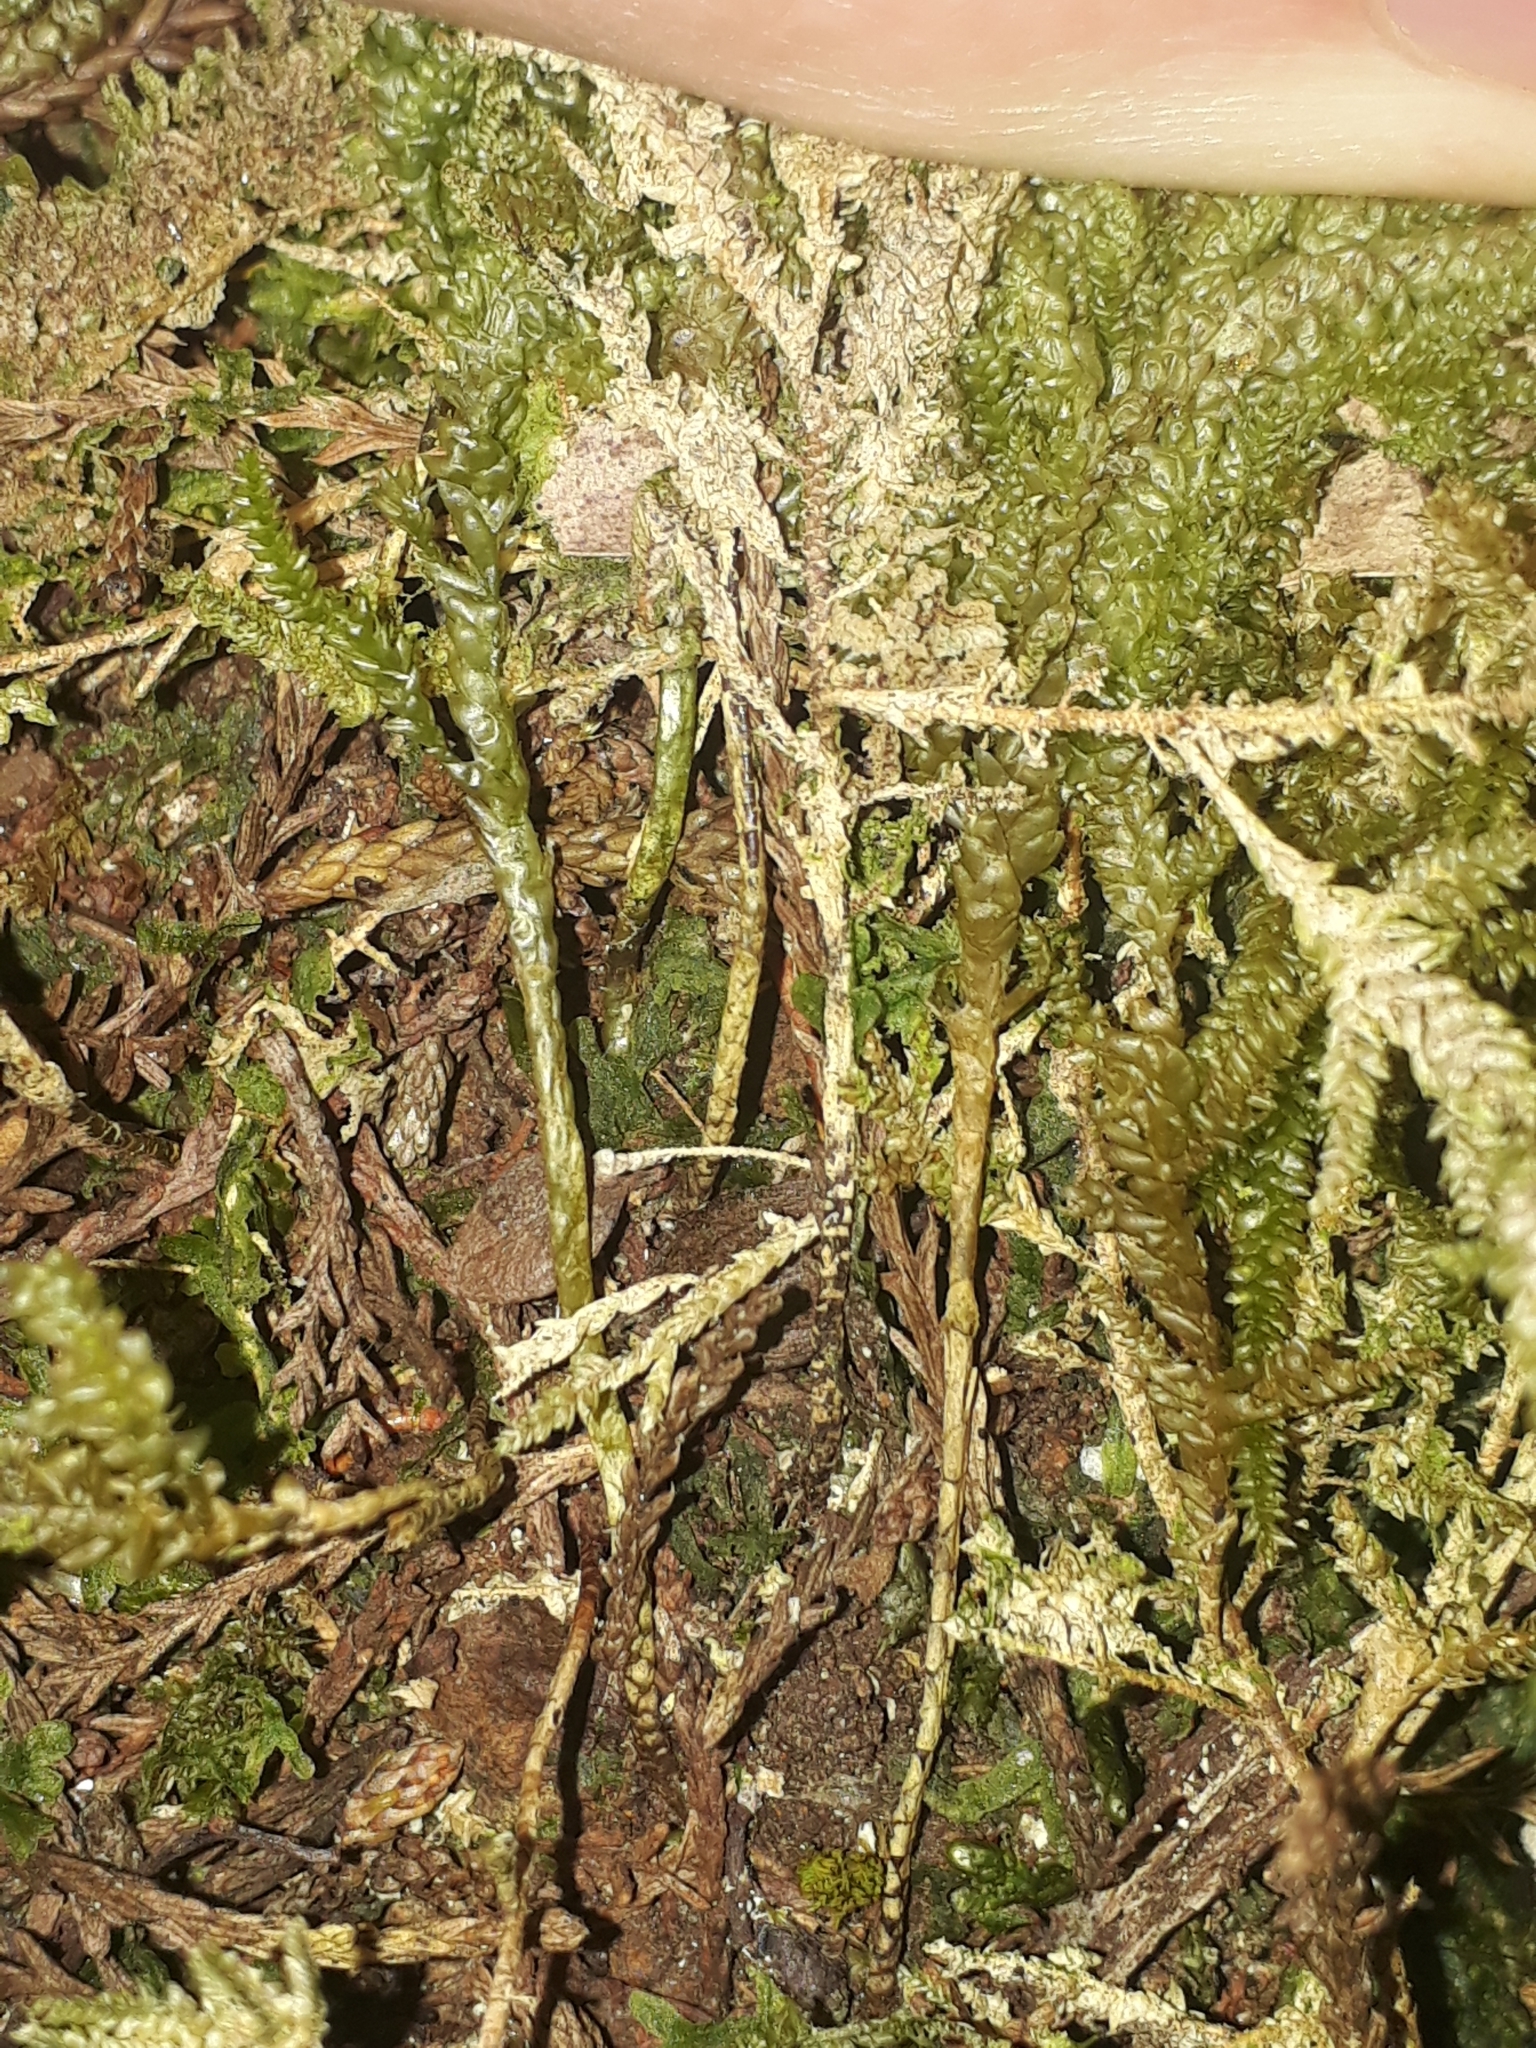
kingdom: Plantae
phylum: Bryophyta
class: Bryopsida
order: Hypnales
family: Lembophyllaceae
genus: Camptochaete
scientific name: Camptochaete arbuscula
